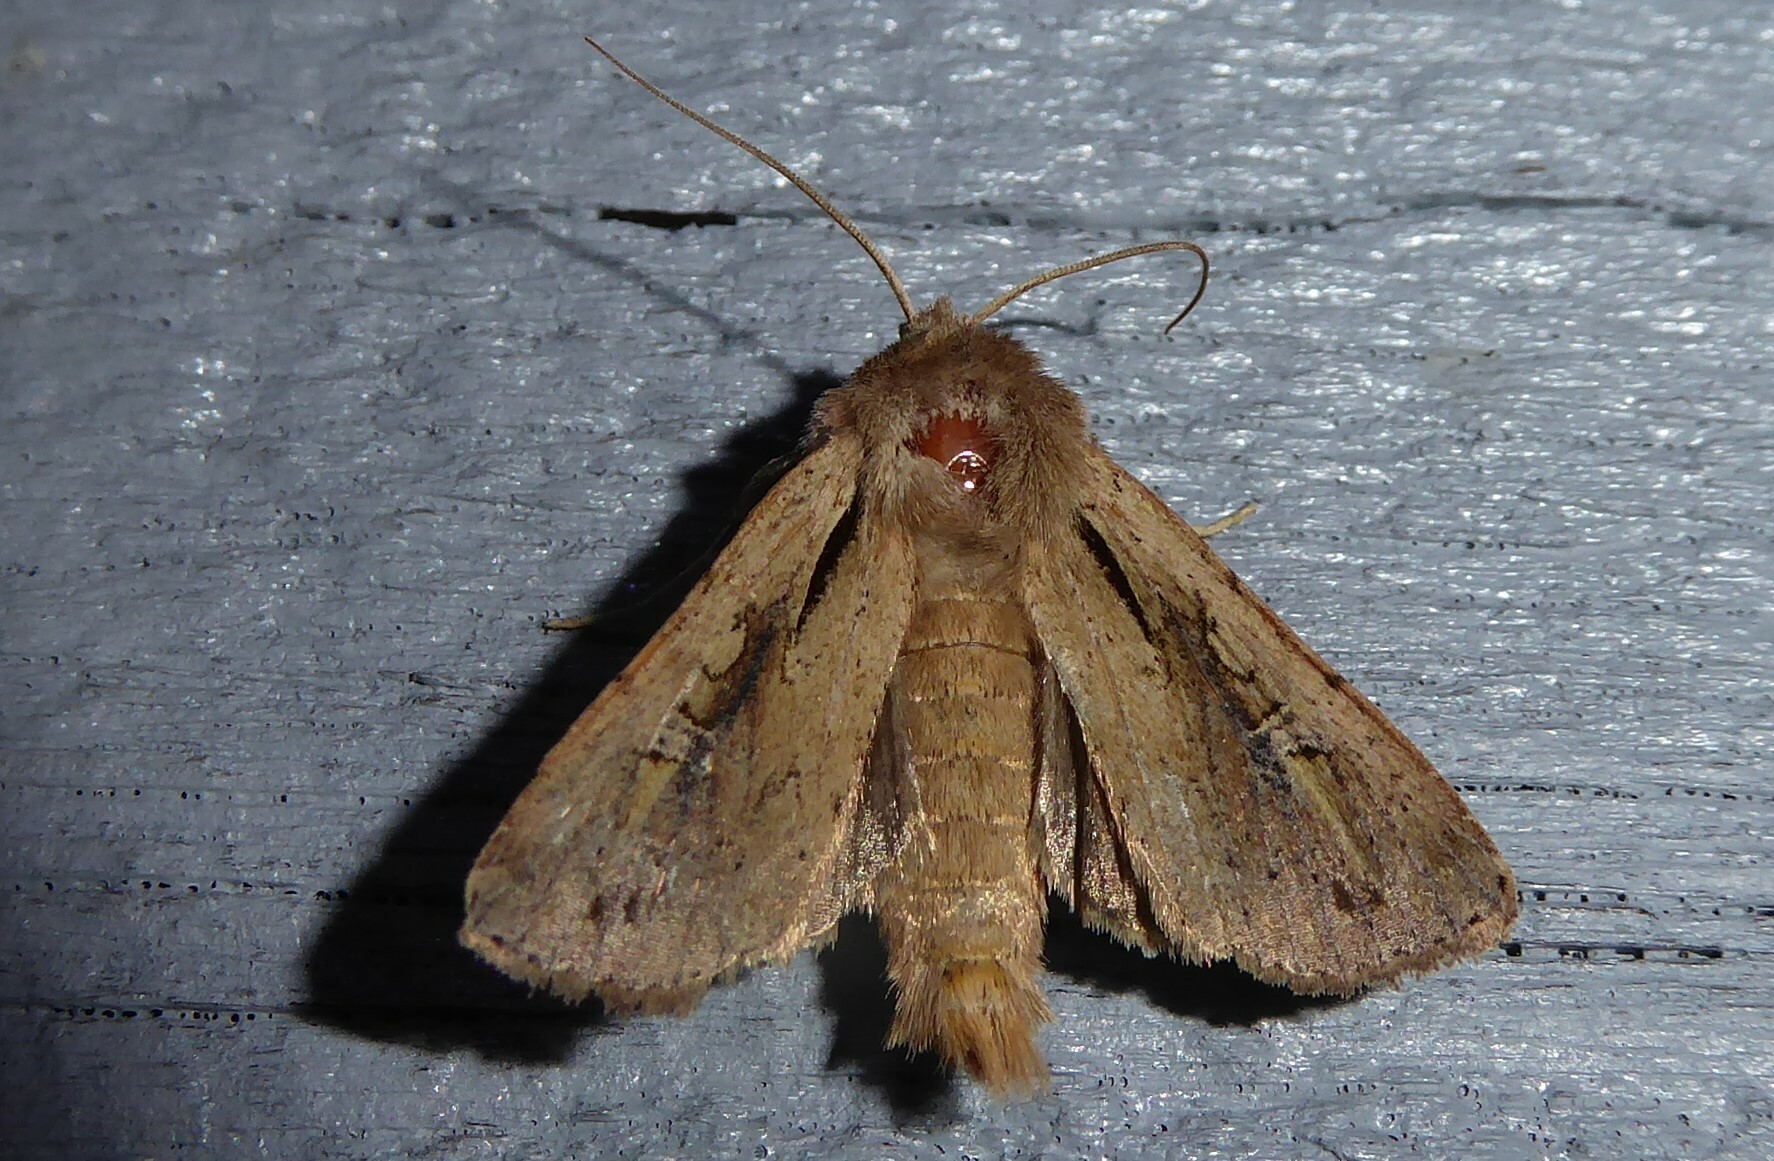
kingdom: Animalia
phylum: Arthropoda
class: Insecta
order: Lepidoptera
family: Noctuidae
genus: Ichneutica
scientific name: Ichneutica atristriga
